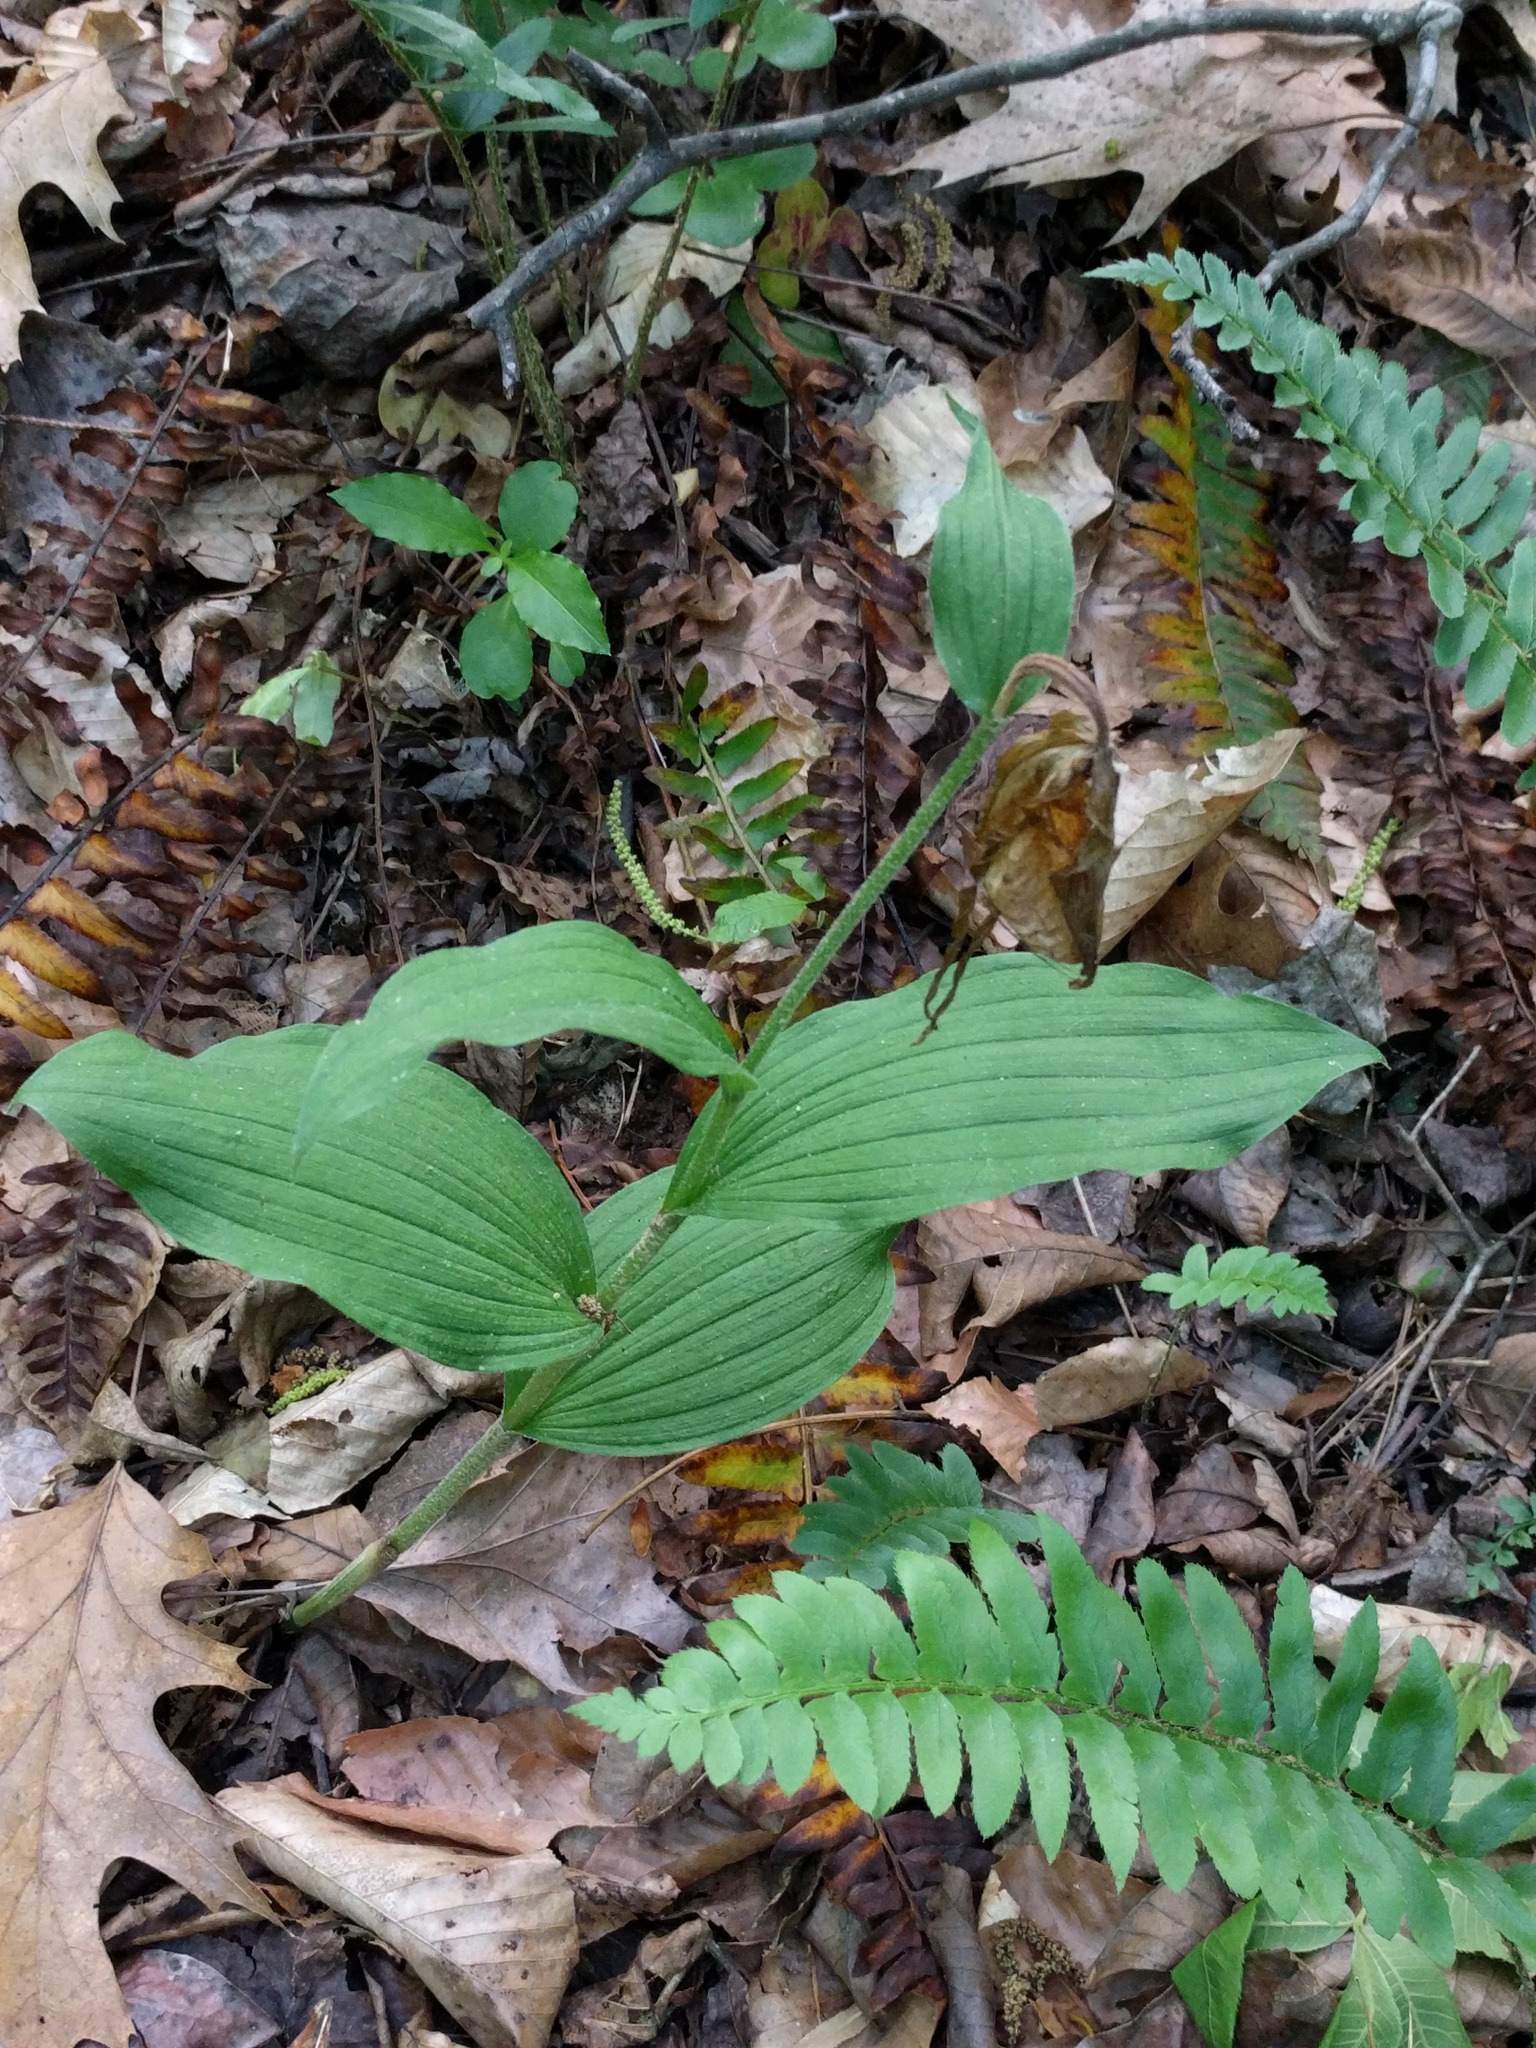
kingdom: Plantae
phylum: Tracheophyta
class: Liliopsida
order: Asparagales
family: Orchidaceae
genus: Cypripedium
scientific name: Cypripedium parviflorum
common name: American yellow lady's-slipper
